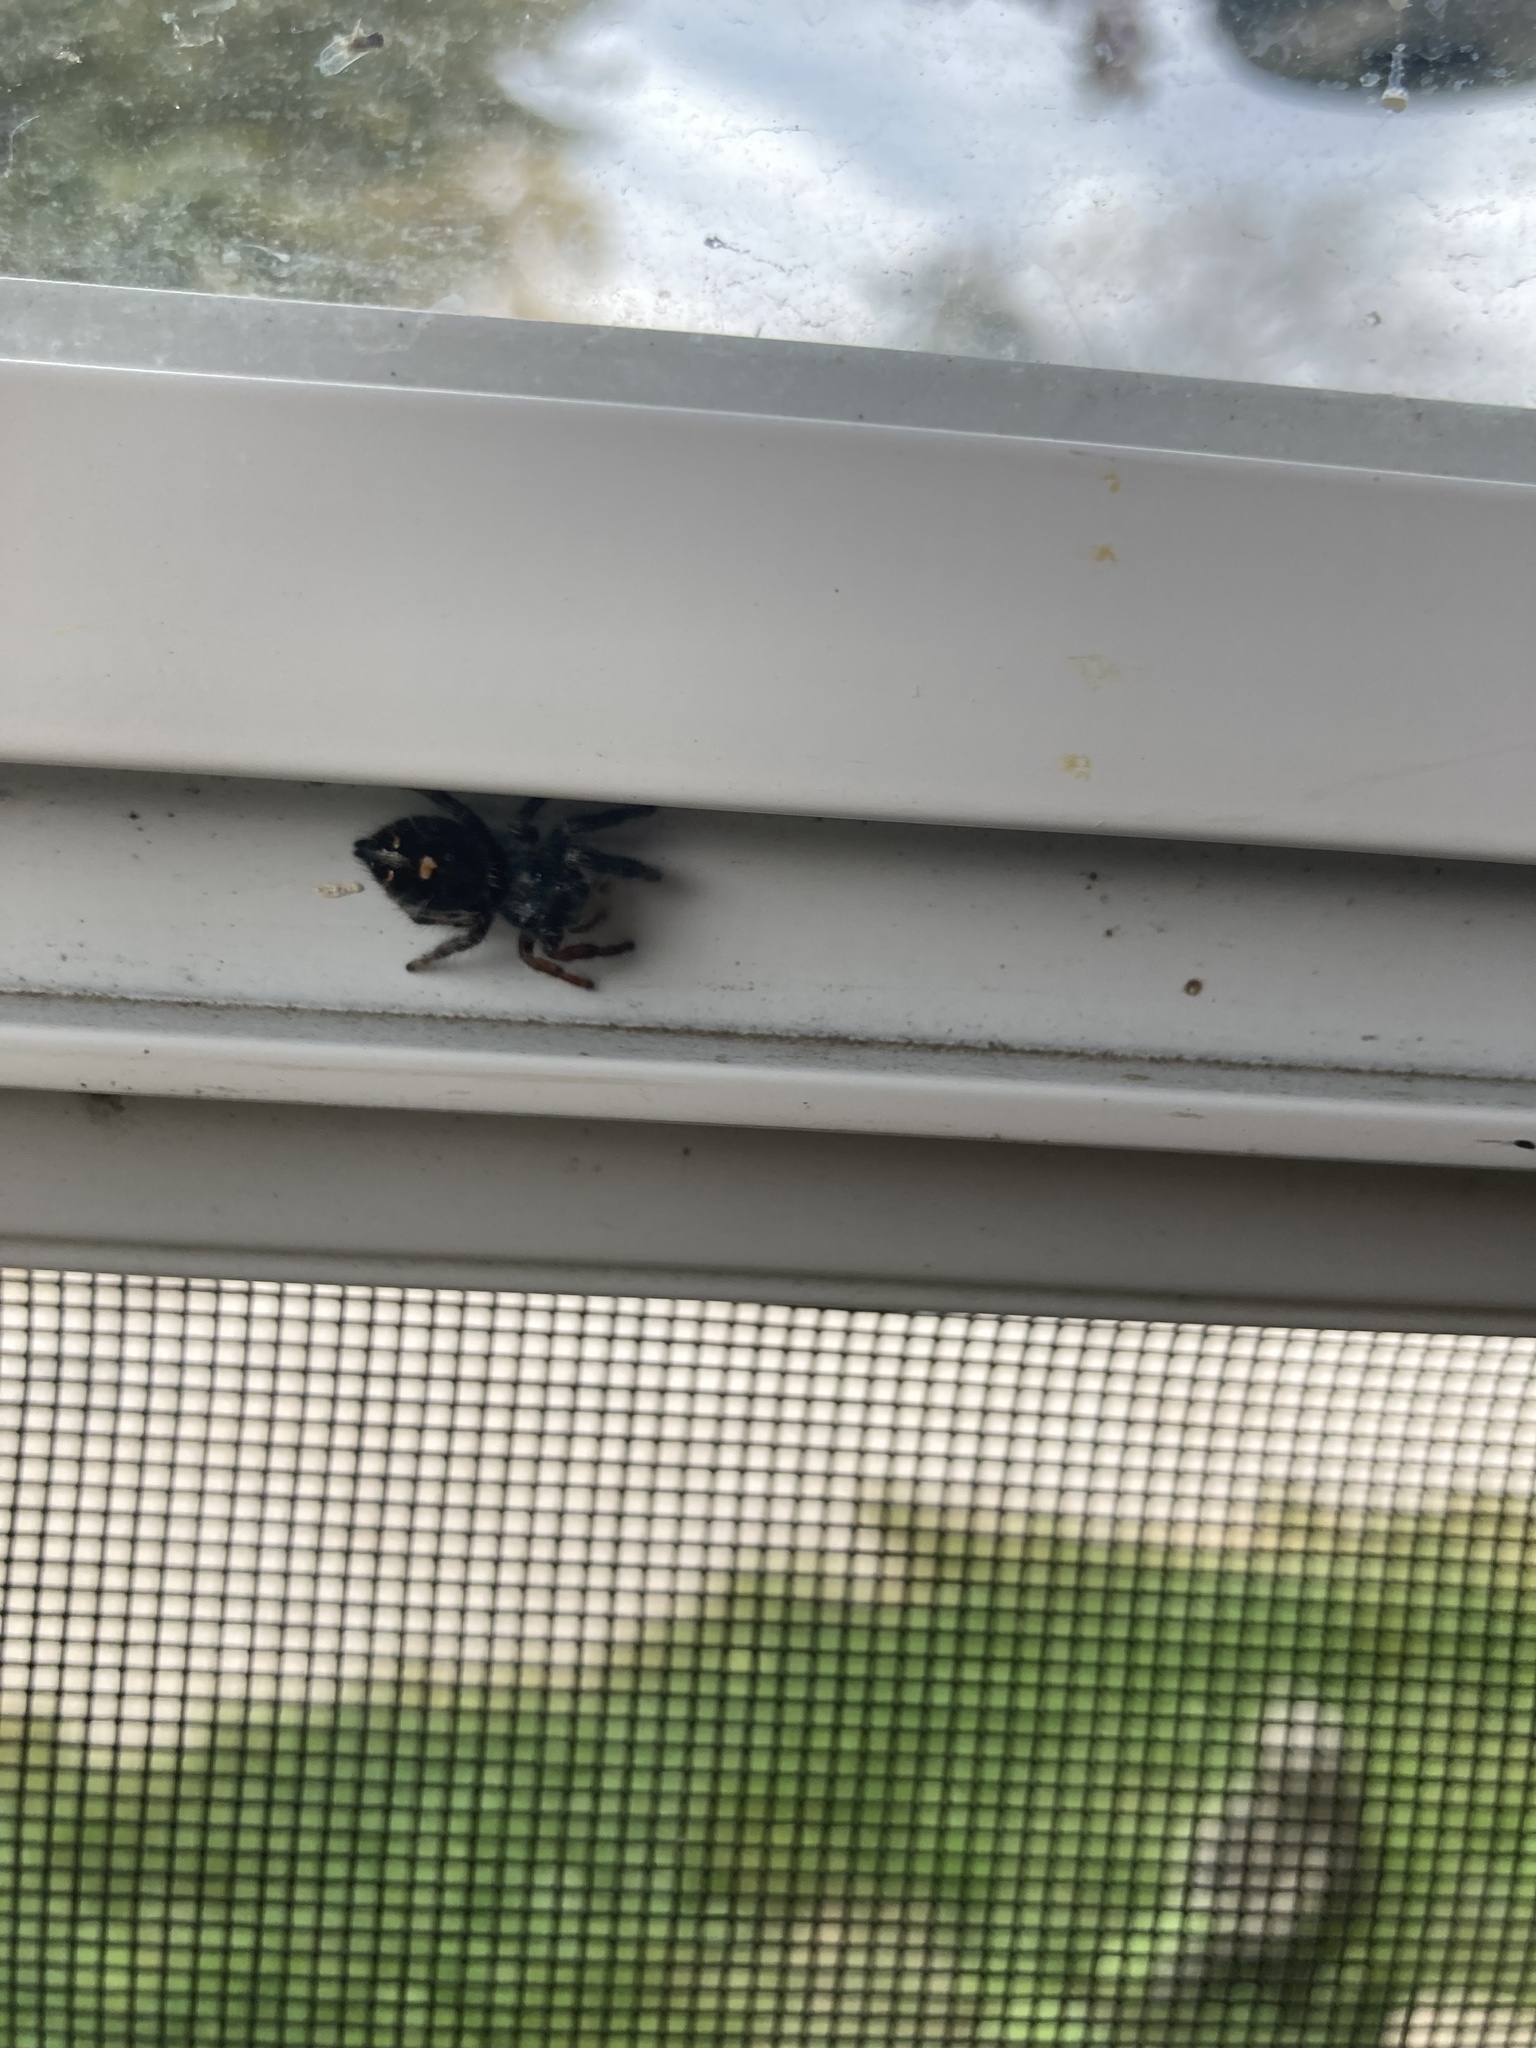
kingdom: Animalia
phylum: Arthropoda
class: Arachnida
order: Araneae
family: Salticidae
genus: Phidippus
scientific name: Phidippus audax
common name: Bold jumper
